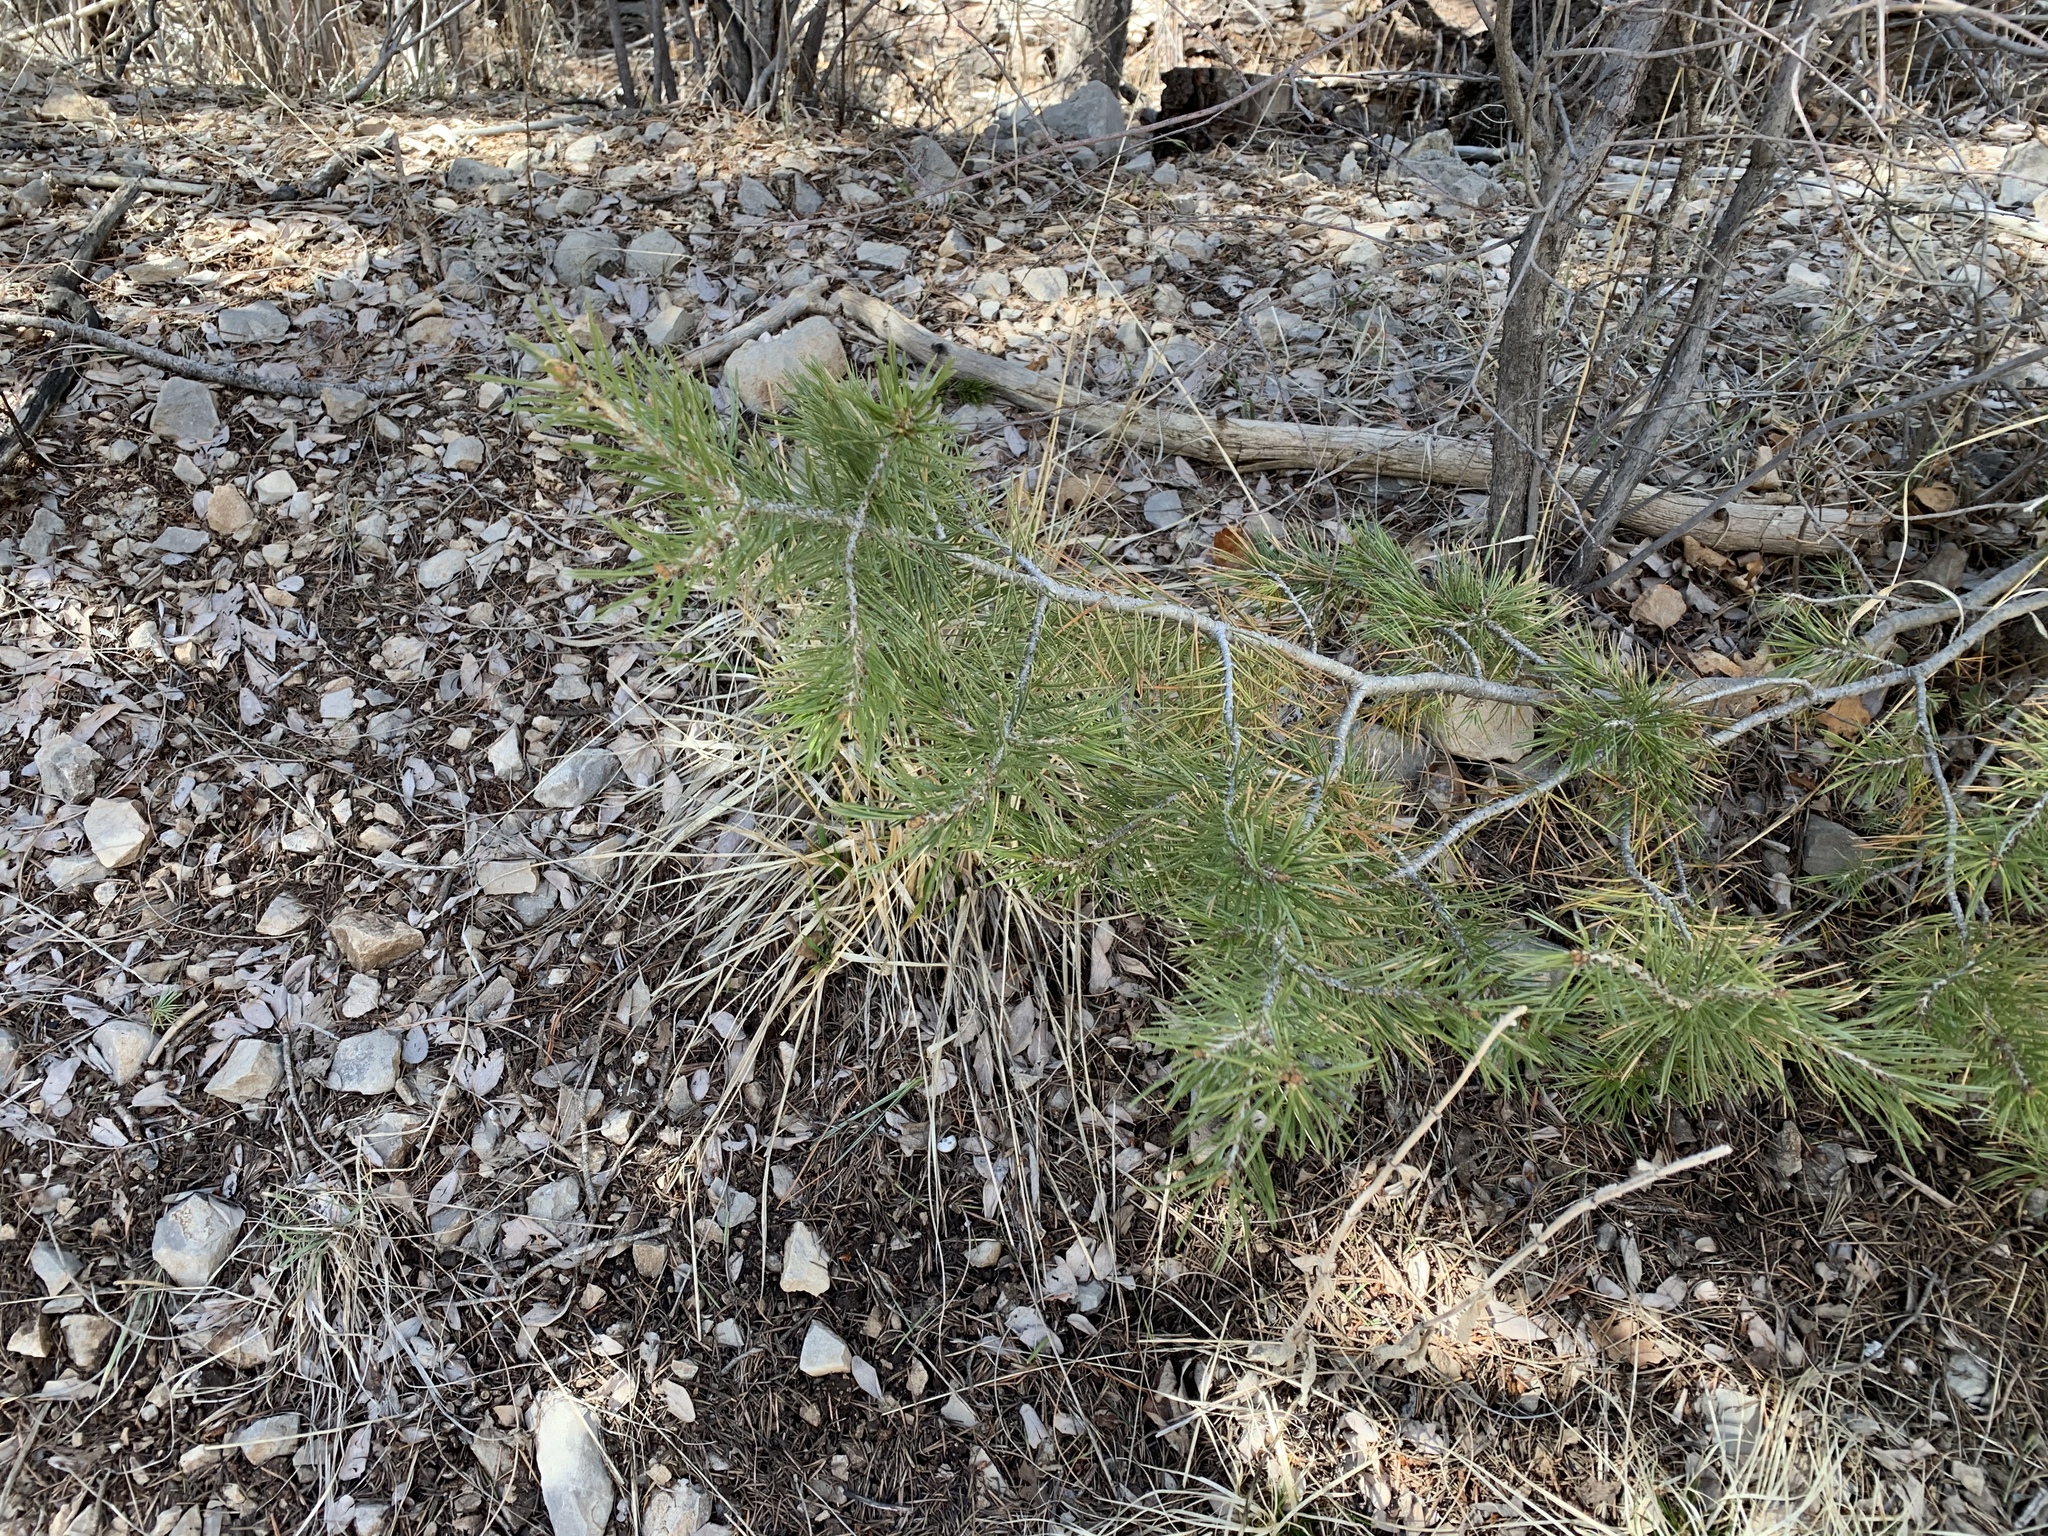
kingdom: Plantae
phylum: Tracheophyta
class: Pinopsida
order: Pinales
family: Pinaceae
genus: Pinus
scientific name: Pinus strobiformis
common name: Southwestern white pine
